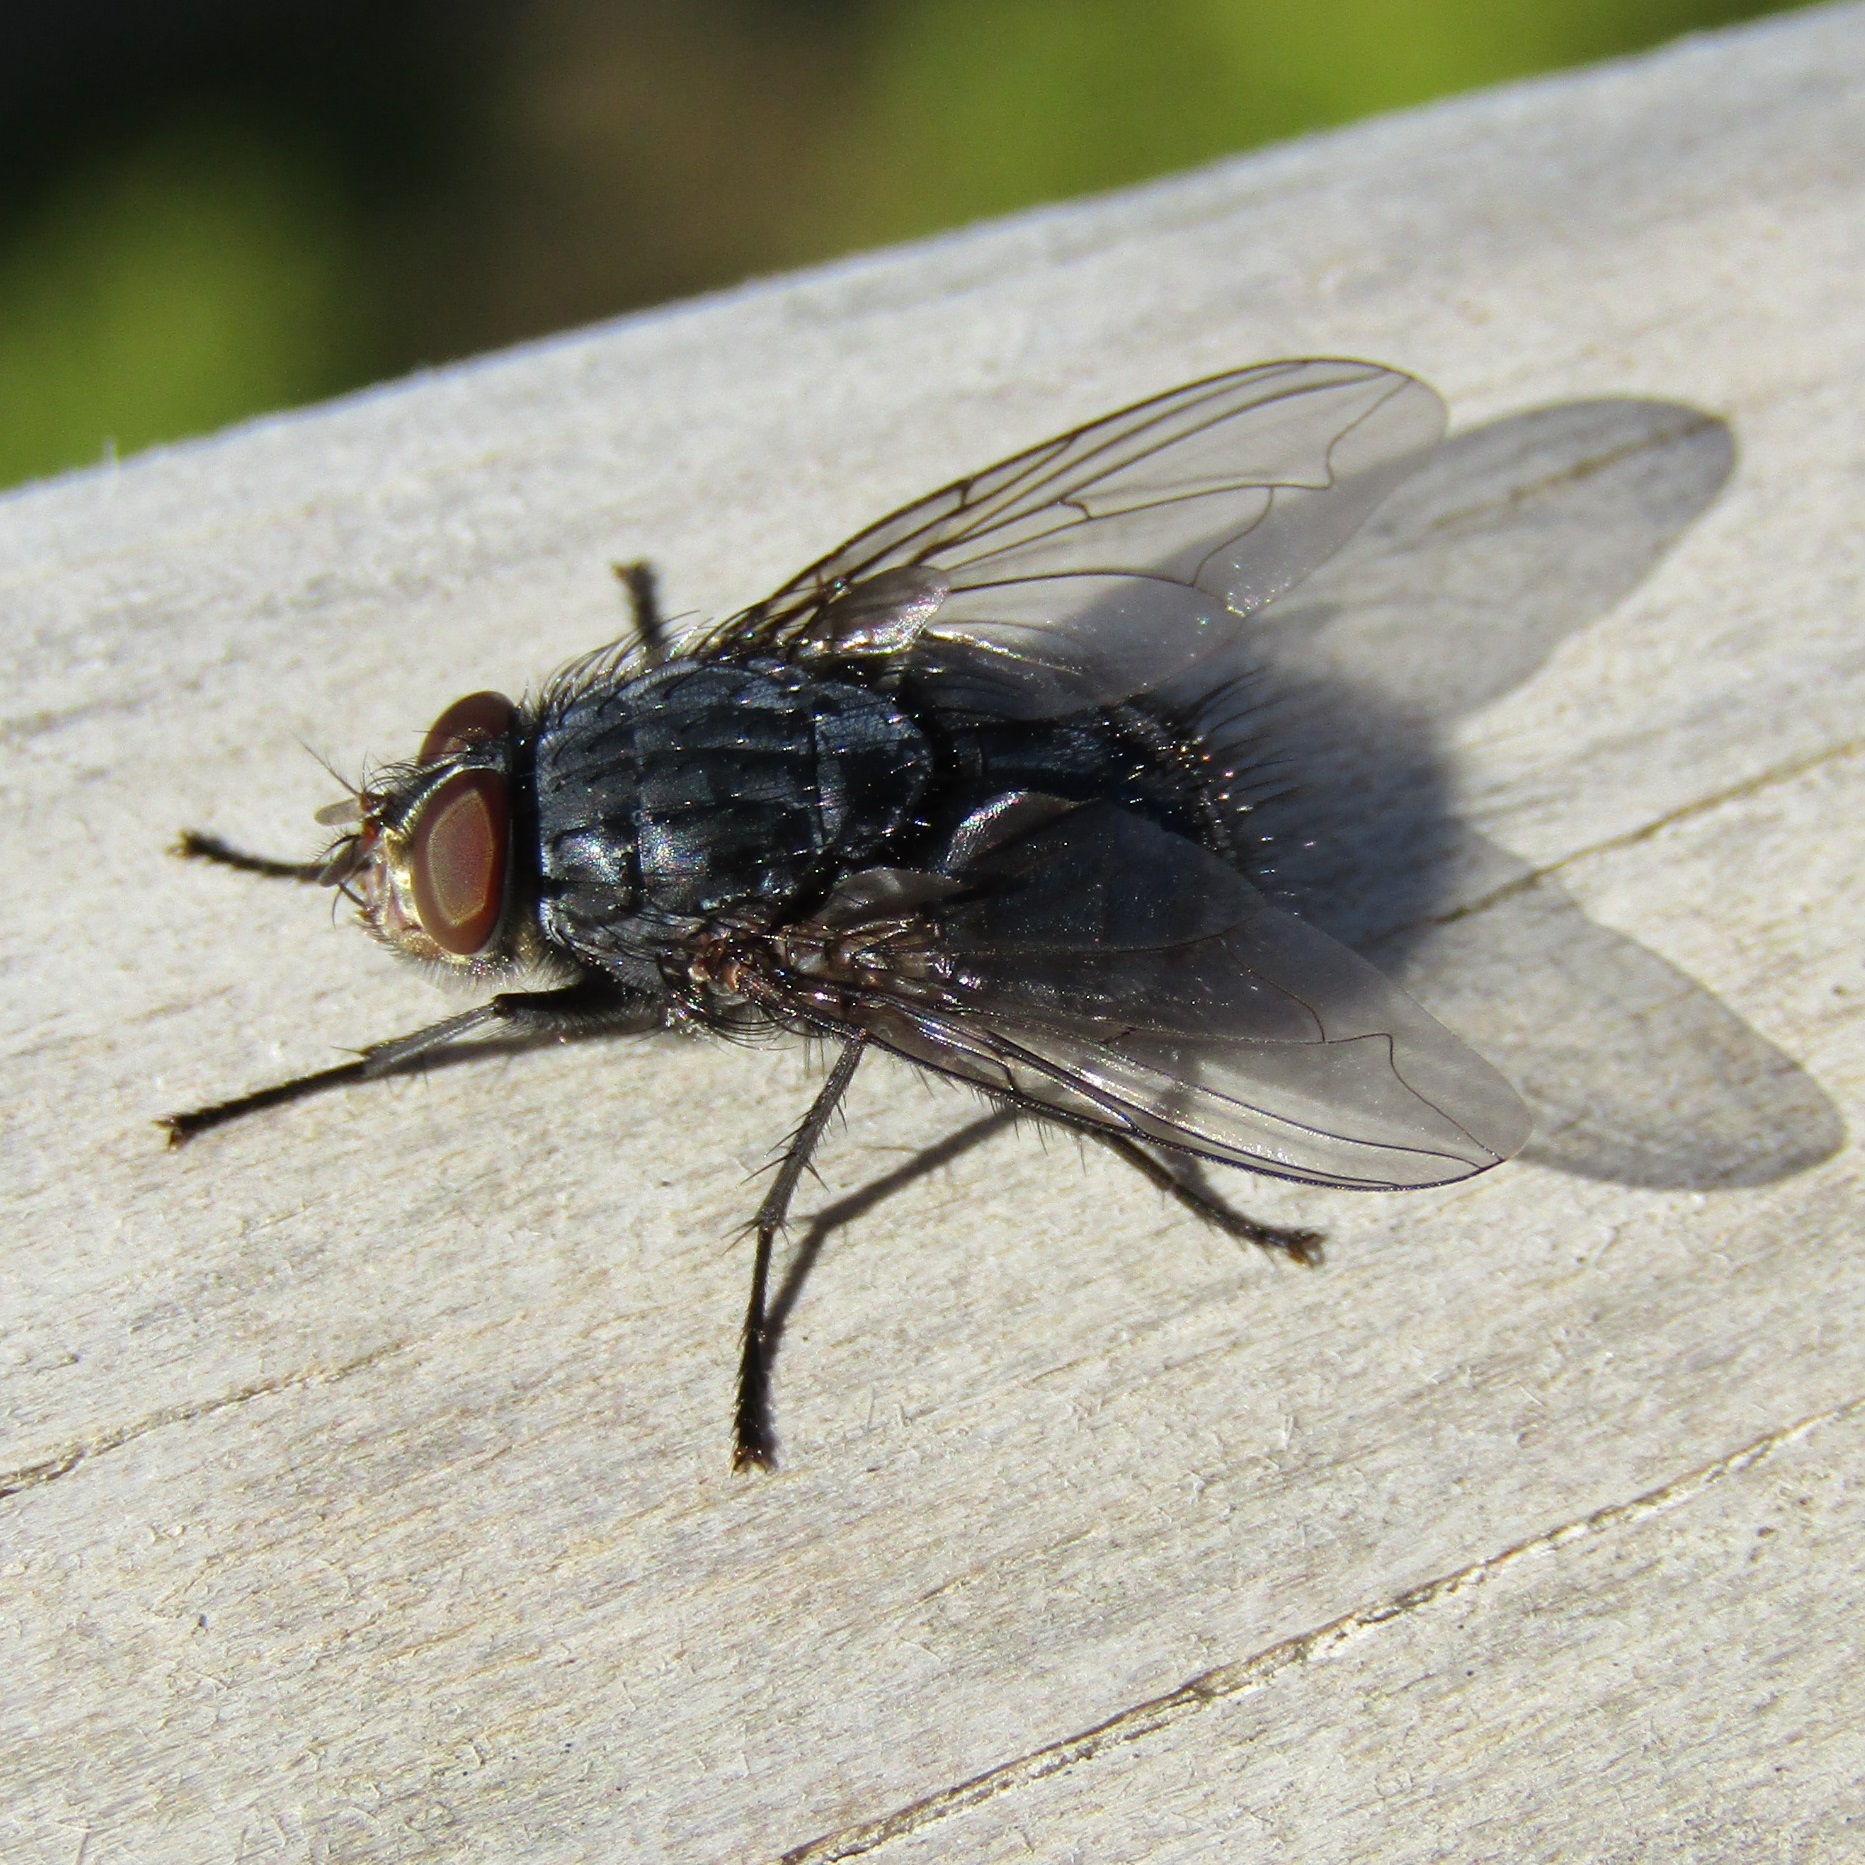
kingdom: Animalia
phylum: Arthropoda
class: Insecta
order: Diptera
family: Calliphoridae
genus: Calliphora
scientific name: Calliphora vicina
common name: Common blow flie
